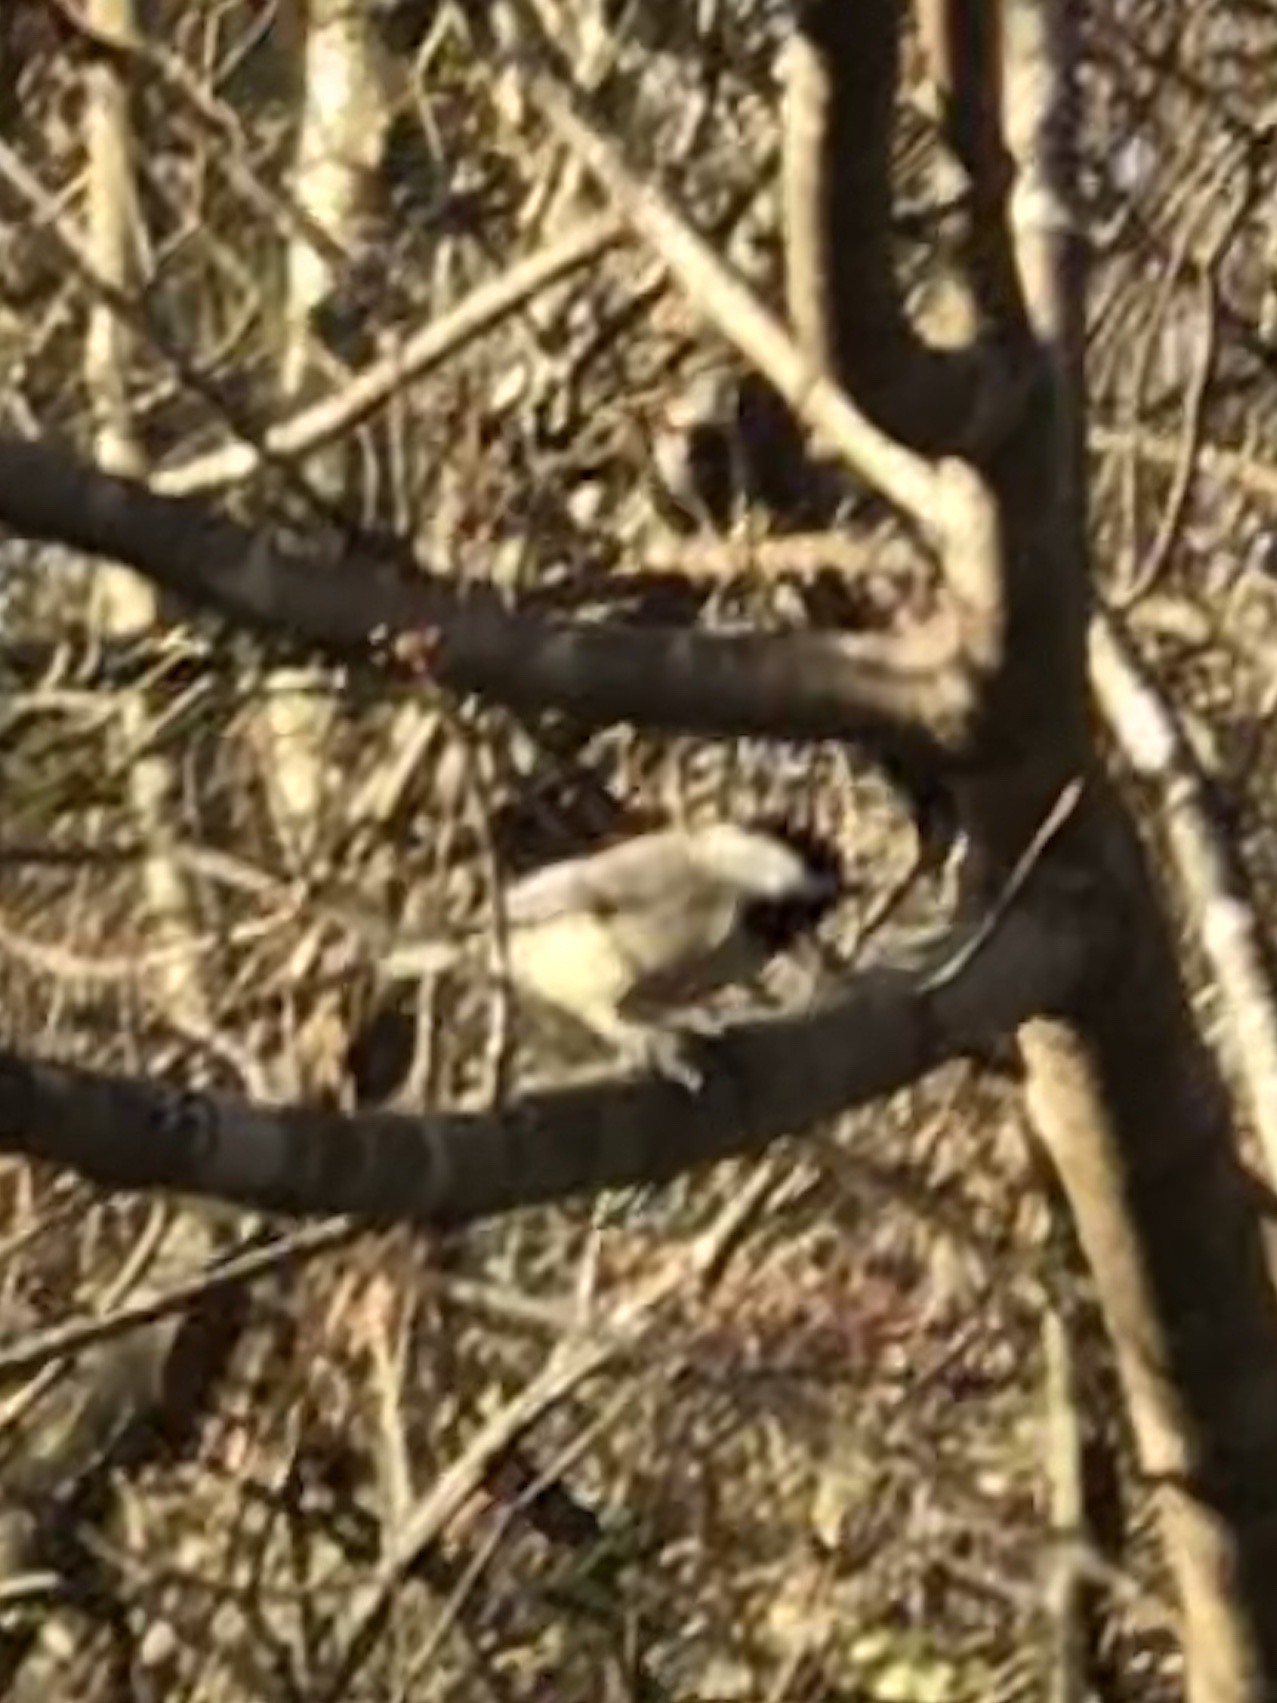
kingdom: Animalia
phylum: Chordata
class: Aves
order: Passeriformes
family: Paridae
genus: Poecile
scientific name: Poecile carolinensis
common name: Carolina chickadee
